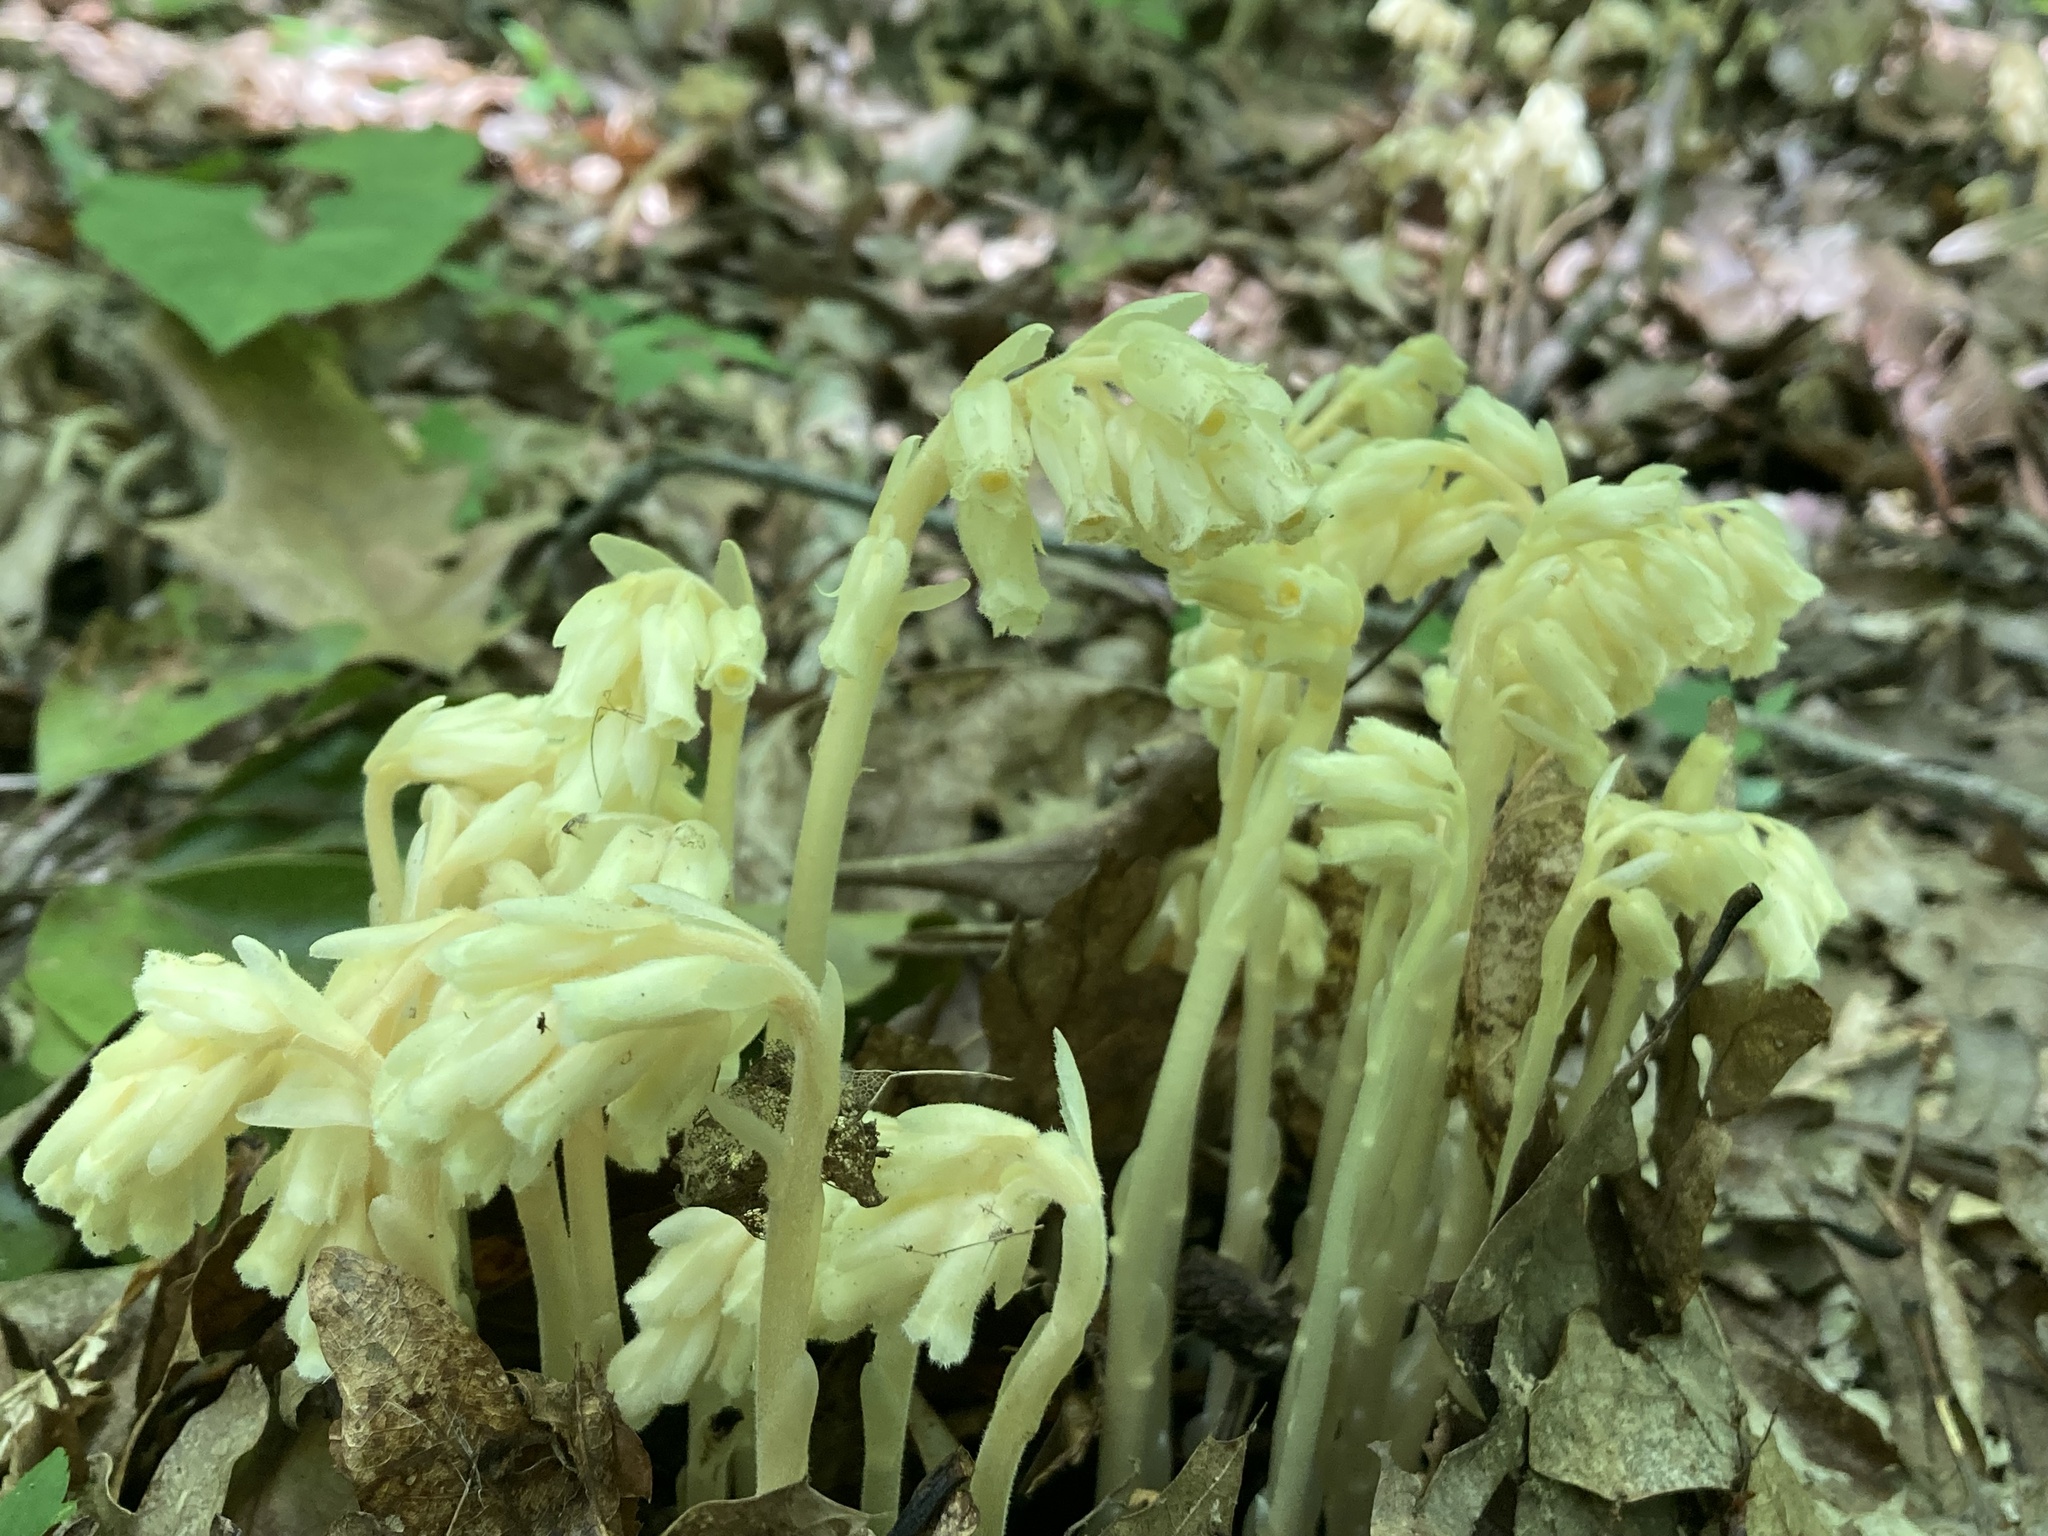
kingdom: Plantae
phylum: Tracheophyta
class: Magnoliopsida
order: Ericales
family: Ericaceae
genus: Hypopitys
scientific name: Hypopitys monotropa
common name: Yellow bird's-nest
